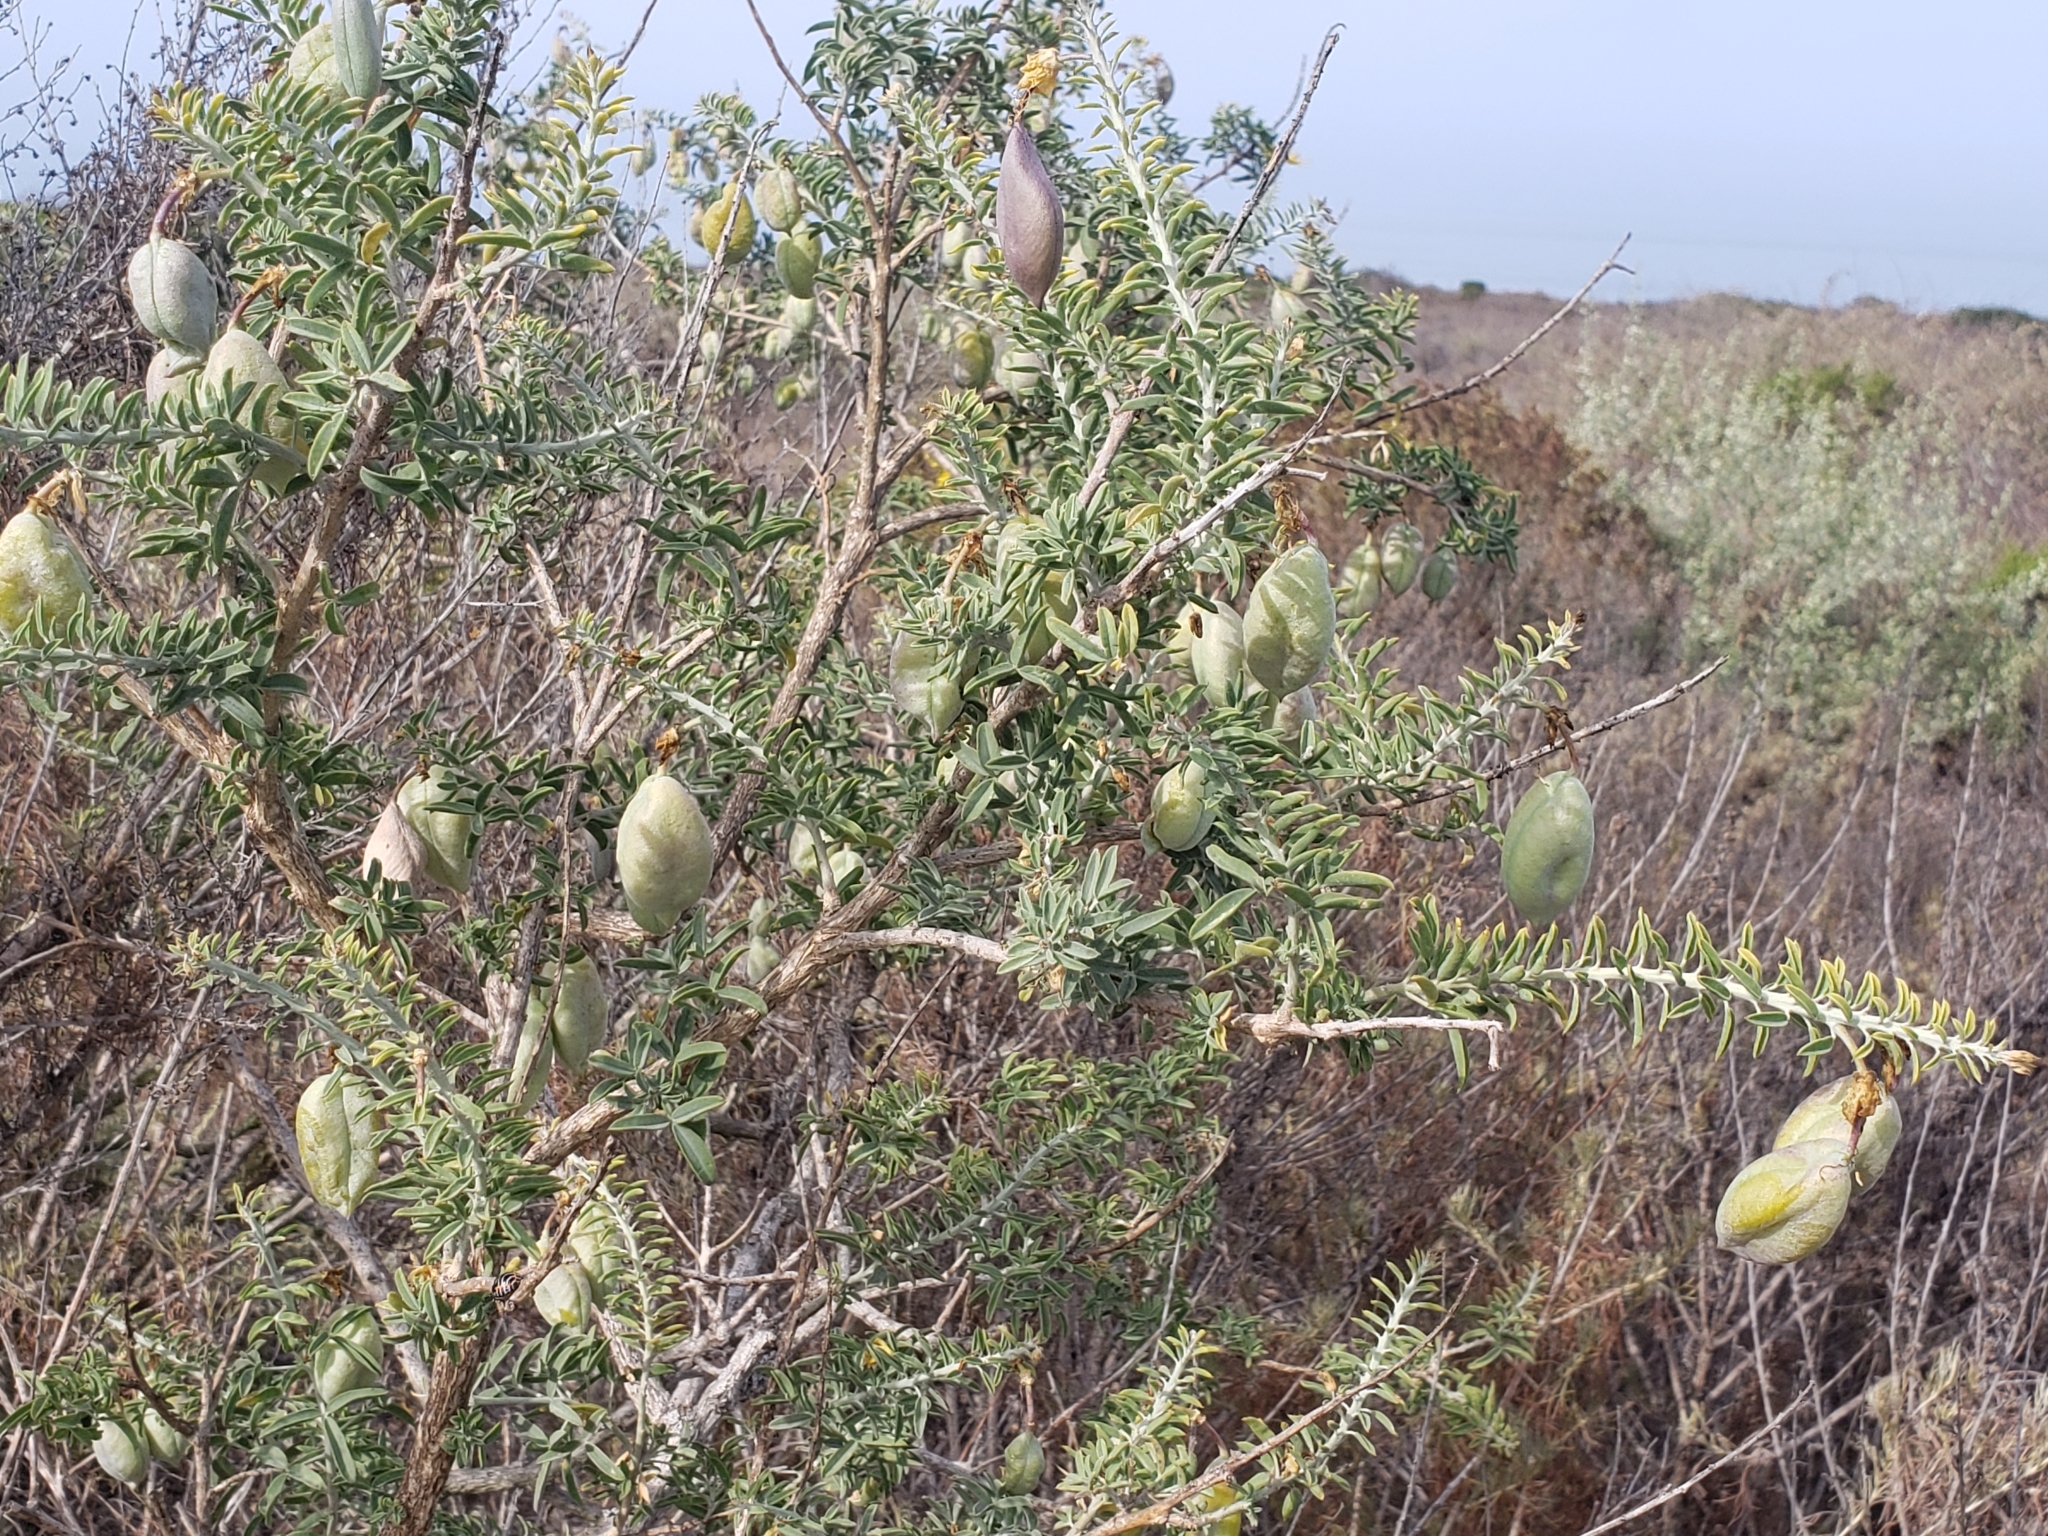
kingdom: Plantae
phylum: Tracheophyta
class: Magnoliopsida
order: Brassicales
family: Cleomaceae
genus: Cleomella
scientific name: Cleomella arborea
